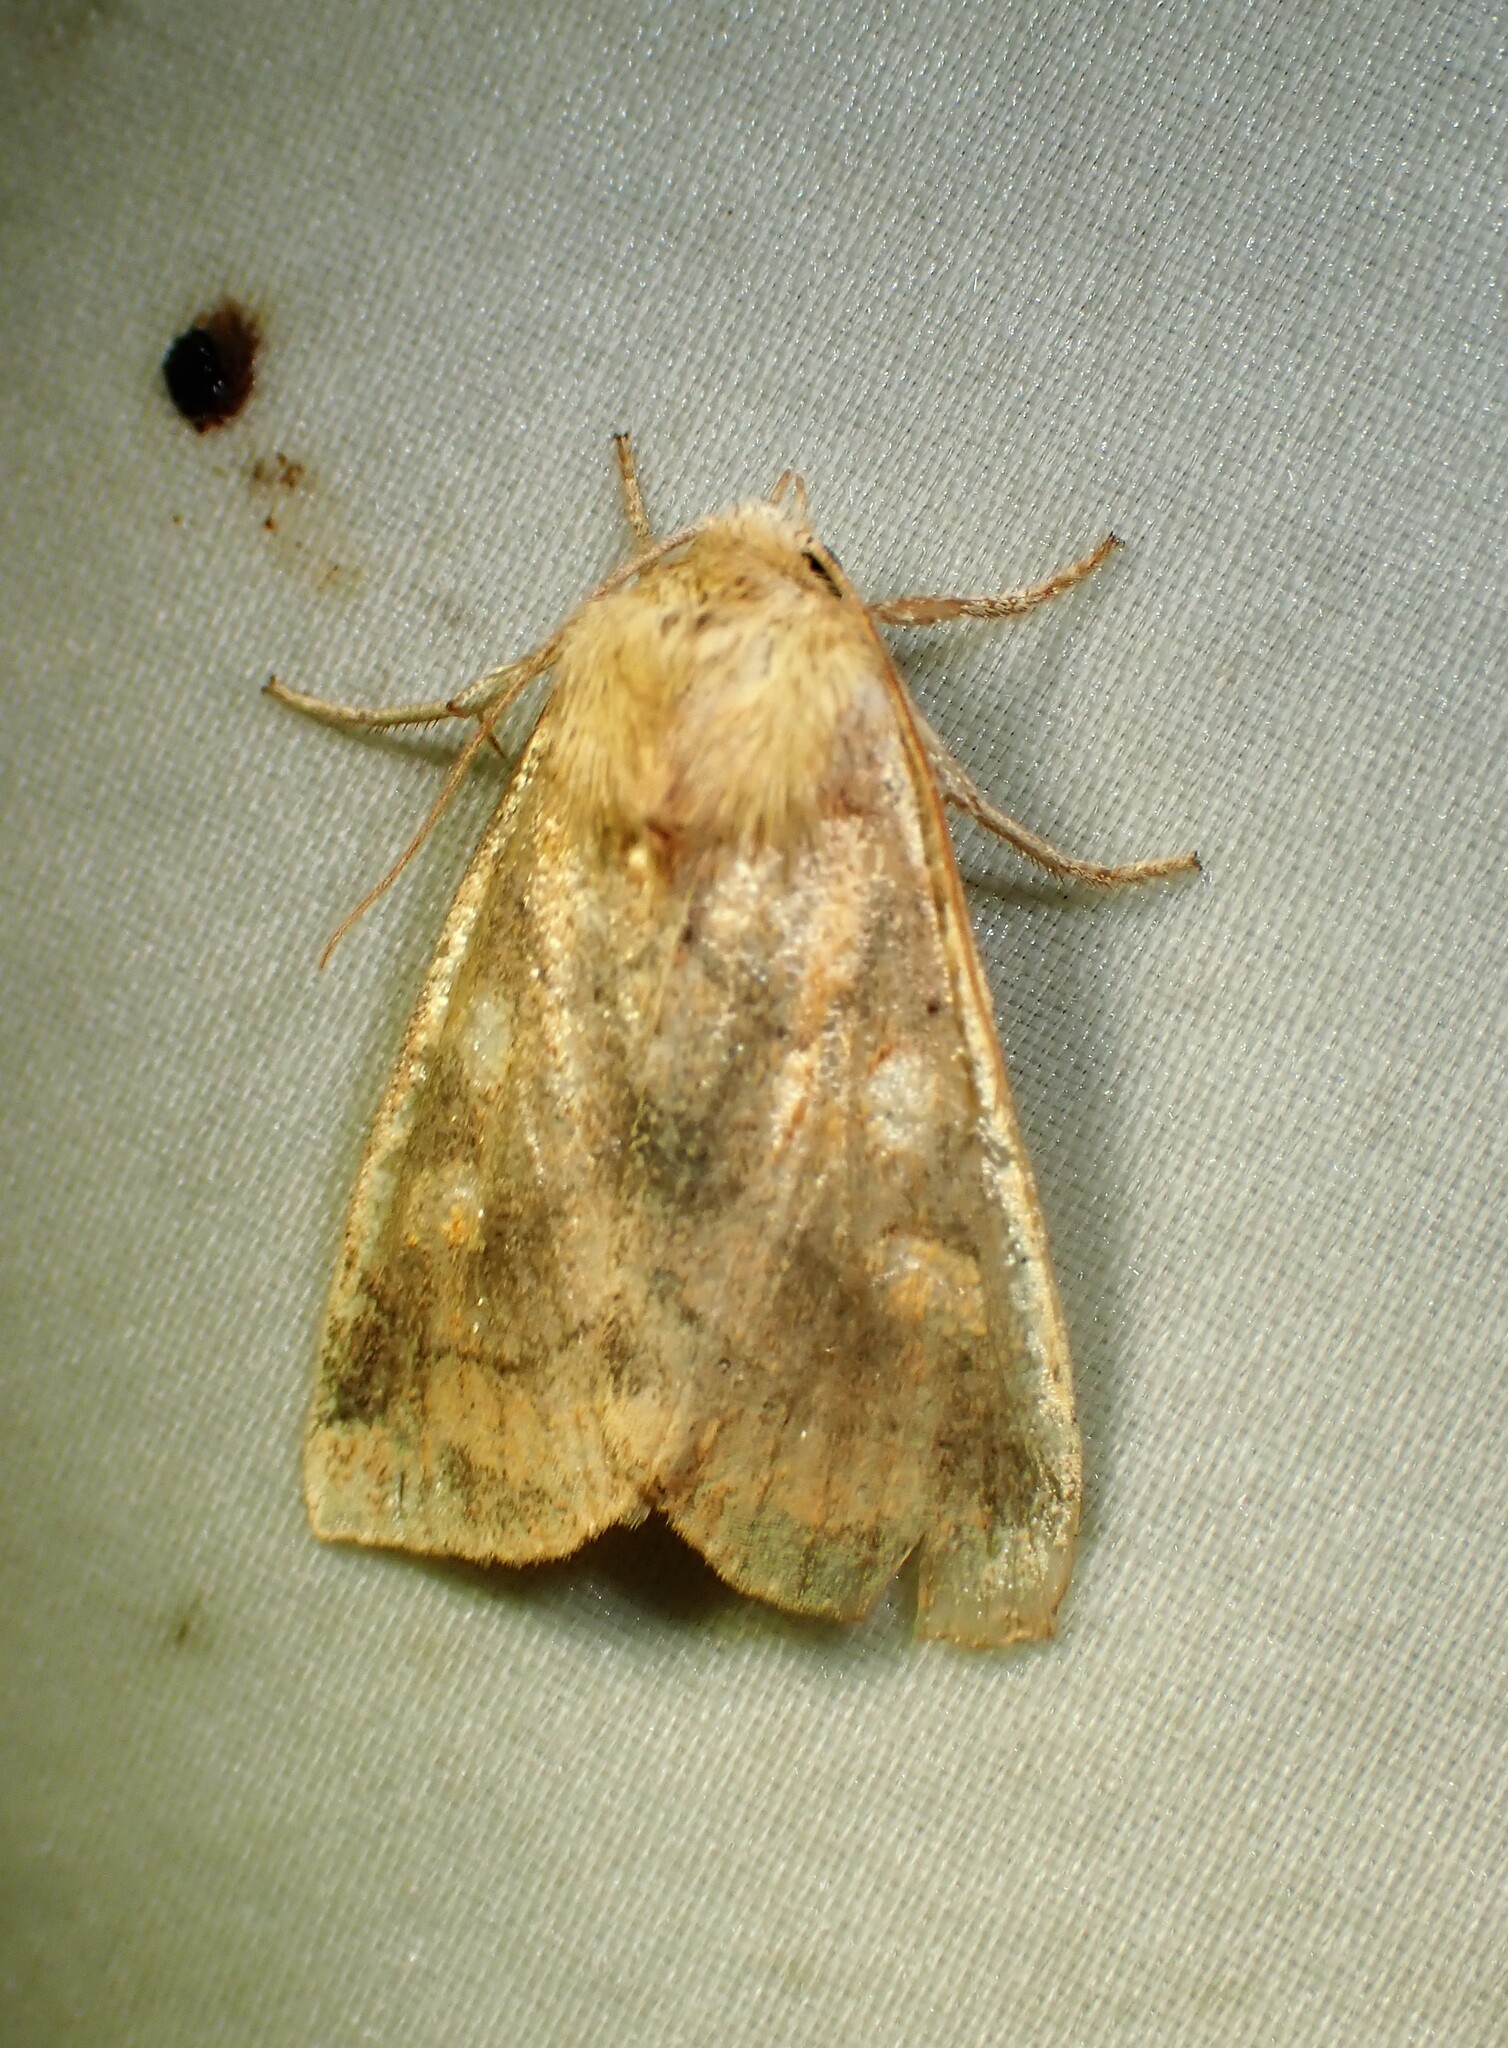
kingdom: Animalia
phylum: Arthropoda
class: Insecta
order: Lepidoptera
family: Noctuidae
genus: Enargia
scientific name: Enargia decolor
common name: Aspen twoleaf tier moth
